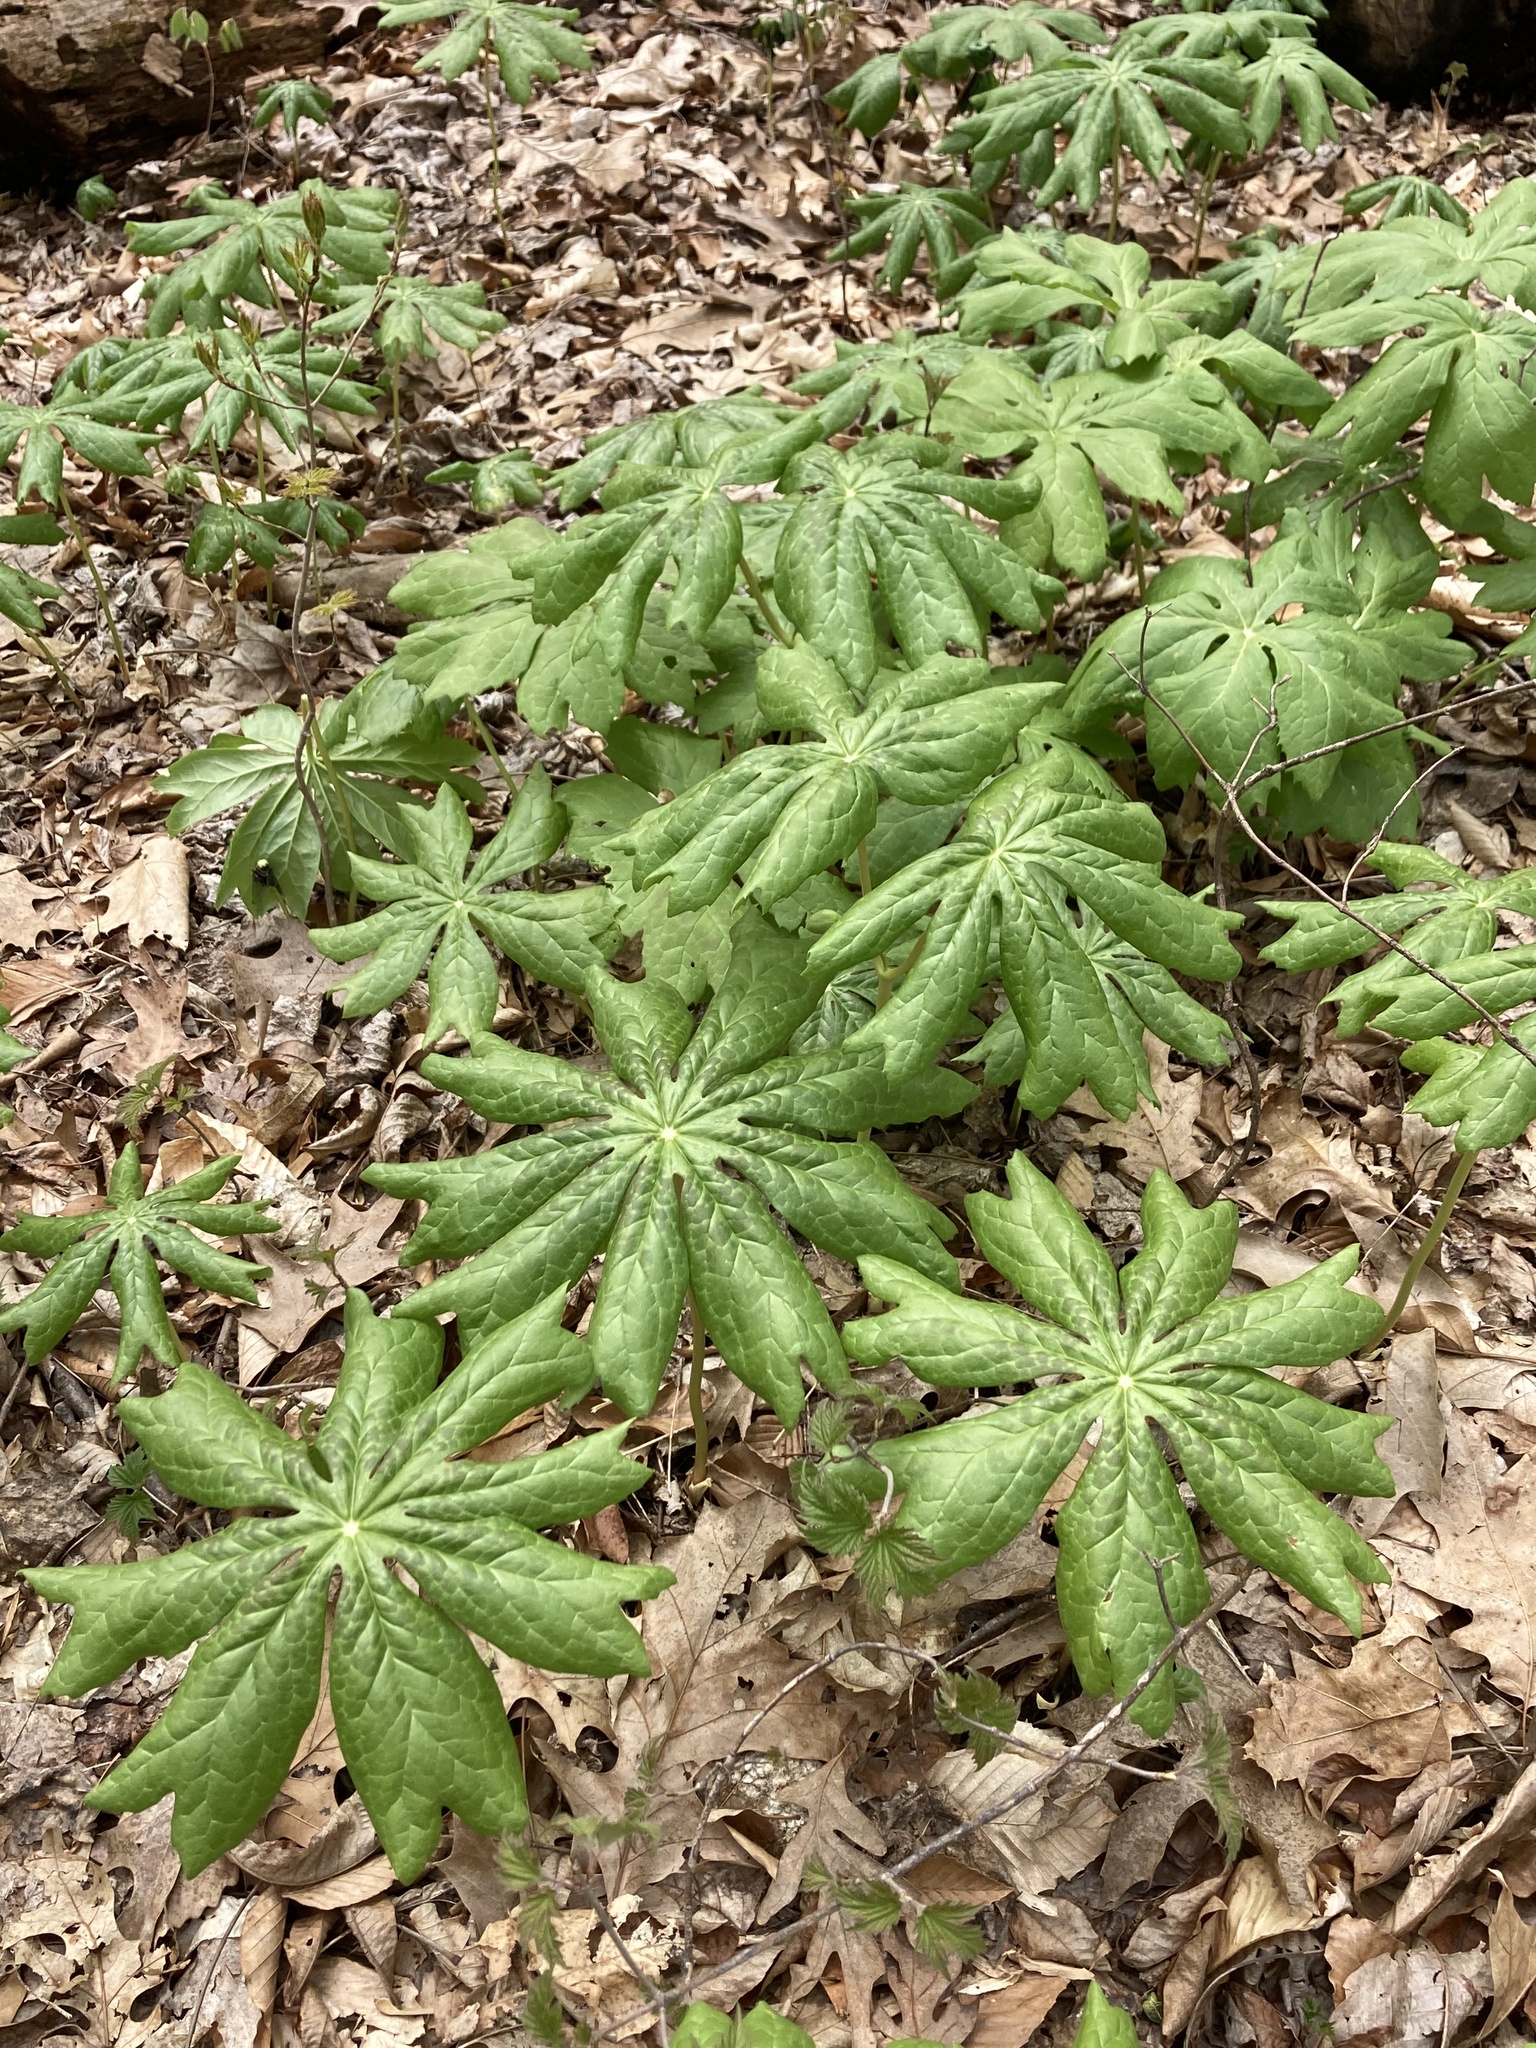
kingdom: Plantae
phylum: Tracheophyta
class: Magnoliopsida
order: Ranunculales
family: Berberidaceae
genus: Podophyllum
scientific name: Podophyllum peltatum
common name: Wild mandrake
